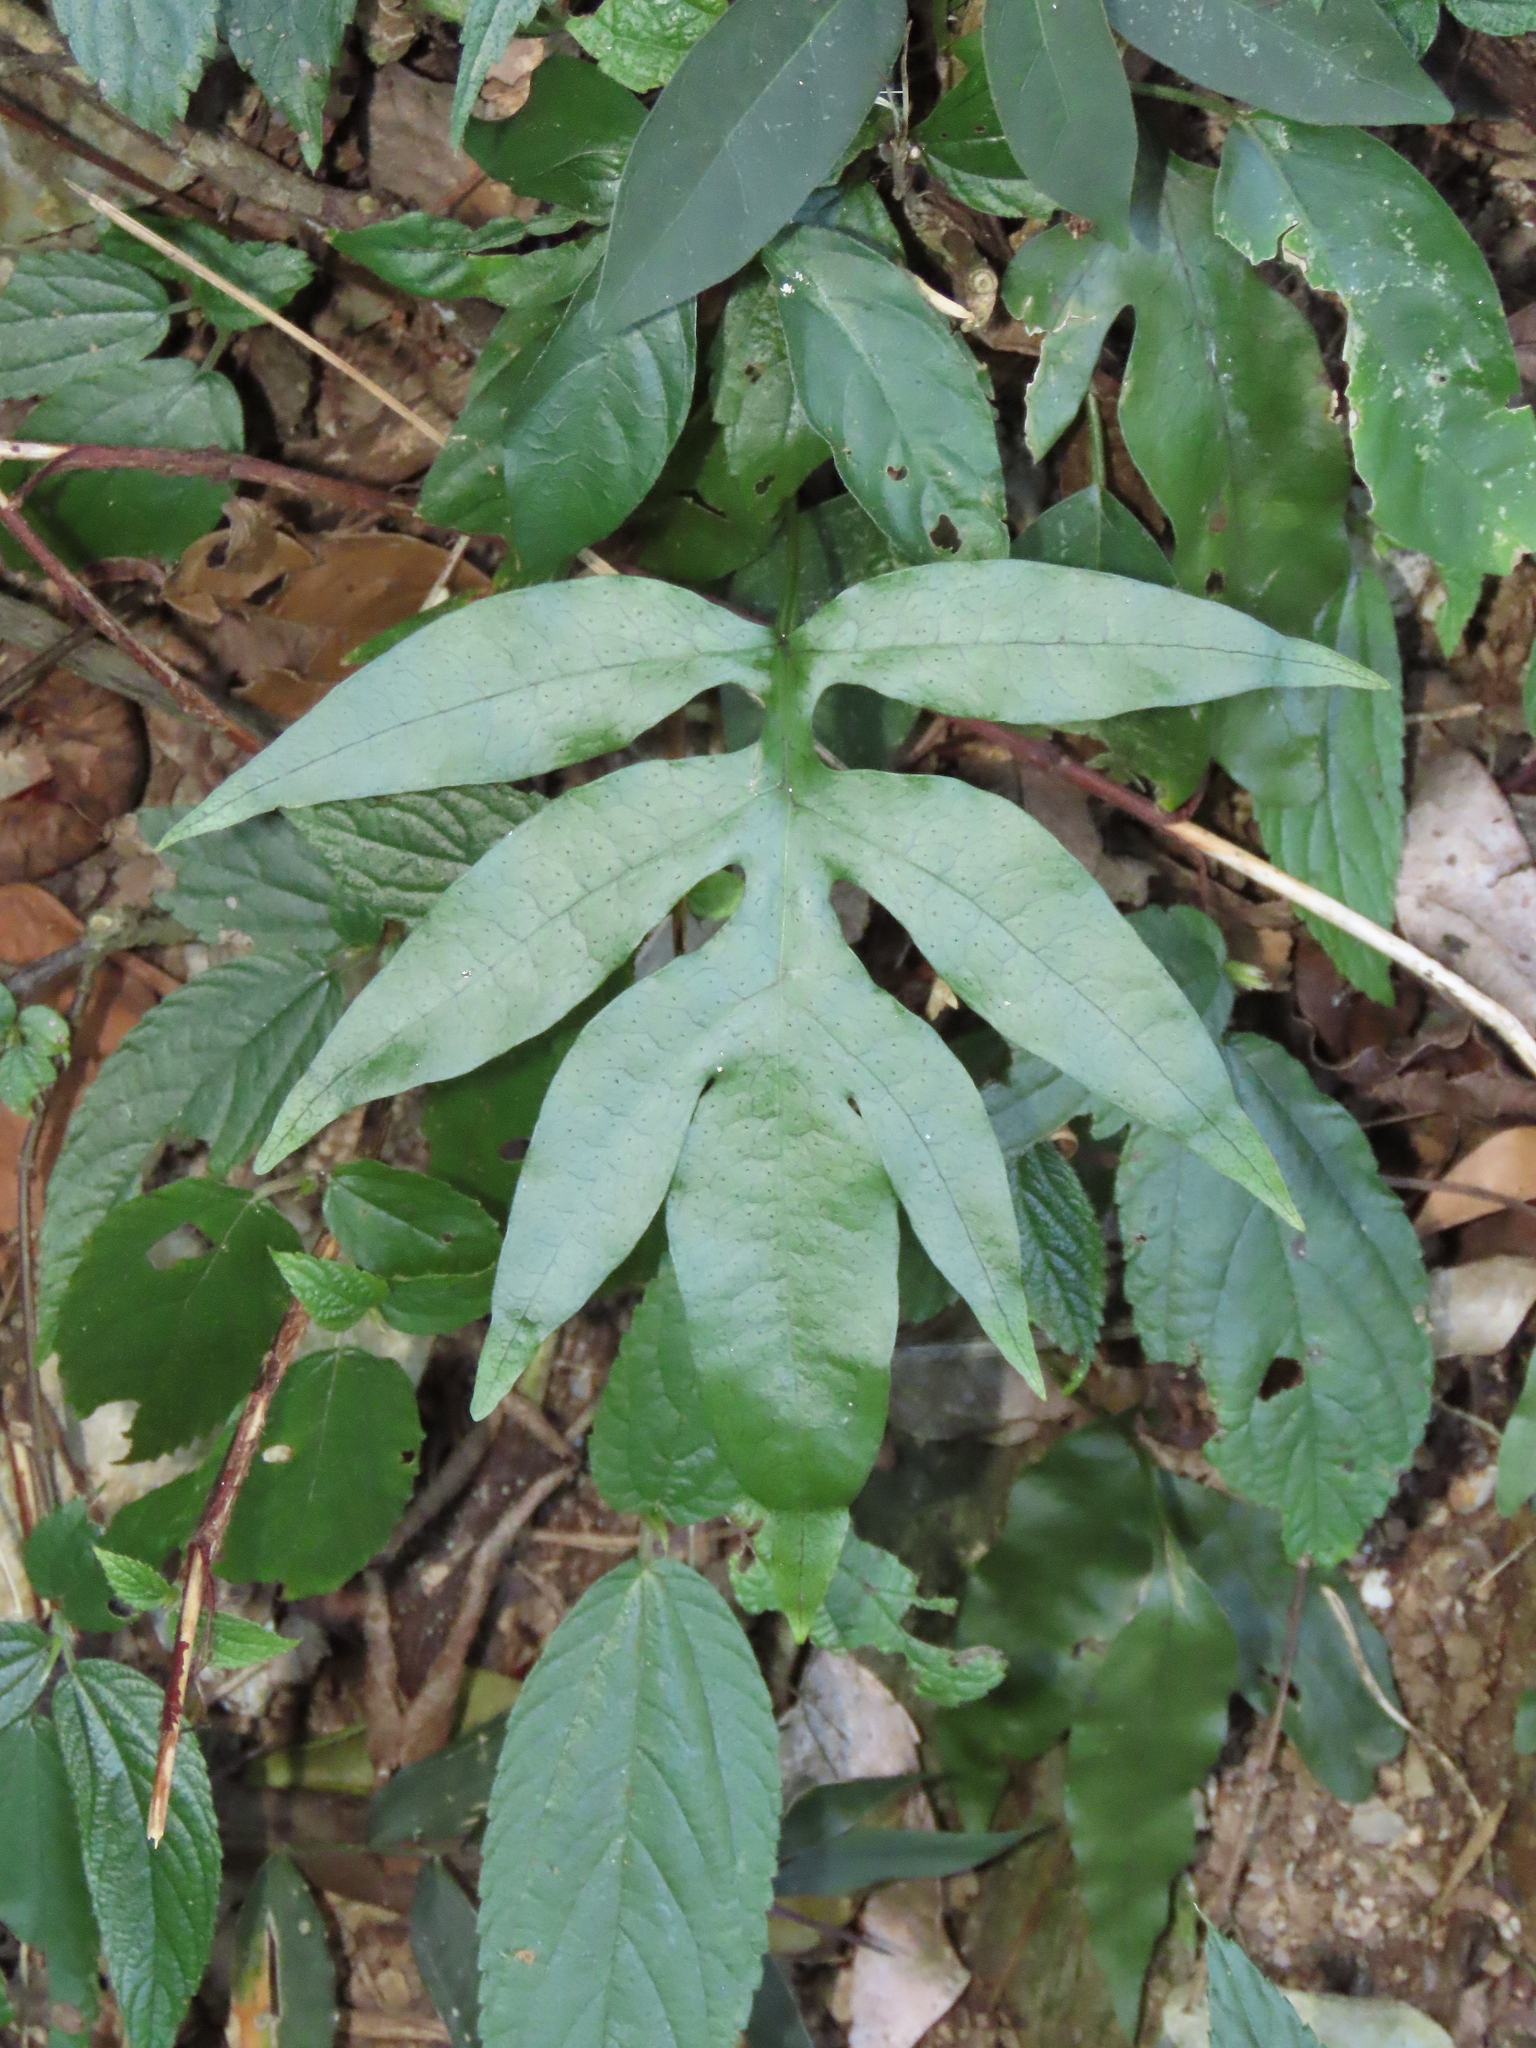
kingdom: Plantae
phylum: Tracheophyta
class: Polypodiopsida
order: Polypodiales
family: Polypodiaceae
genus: Leptochilus
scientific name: Leptochilus ellipticus
